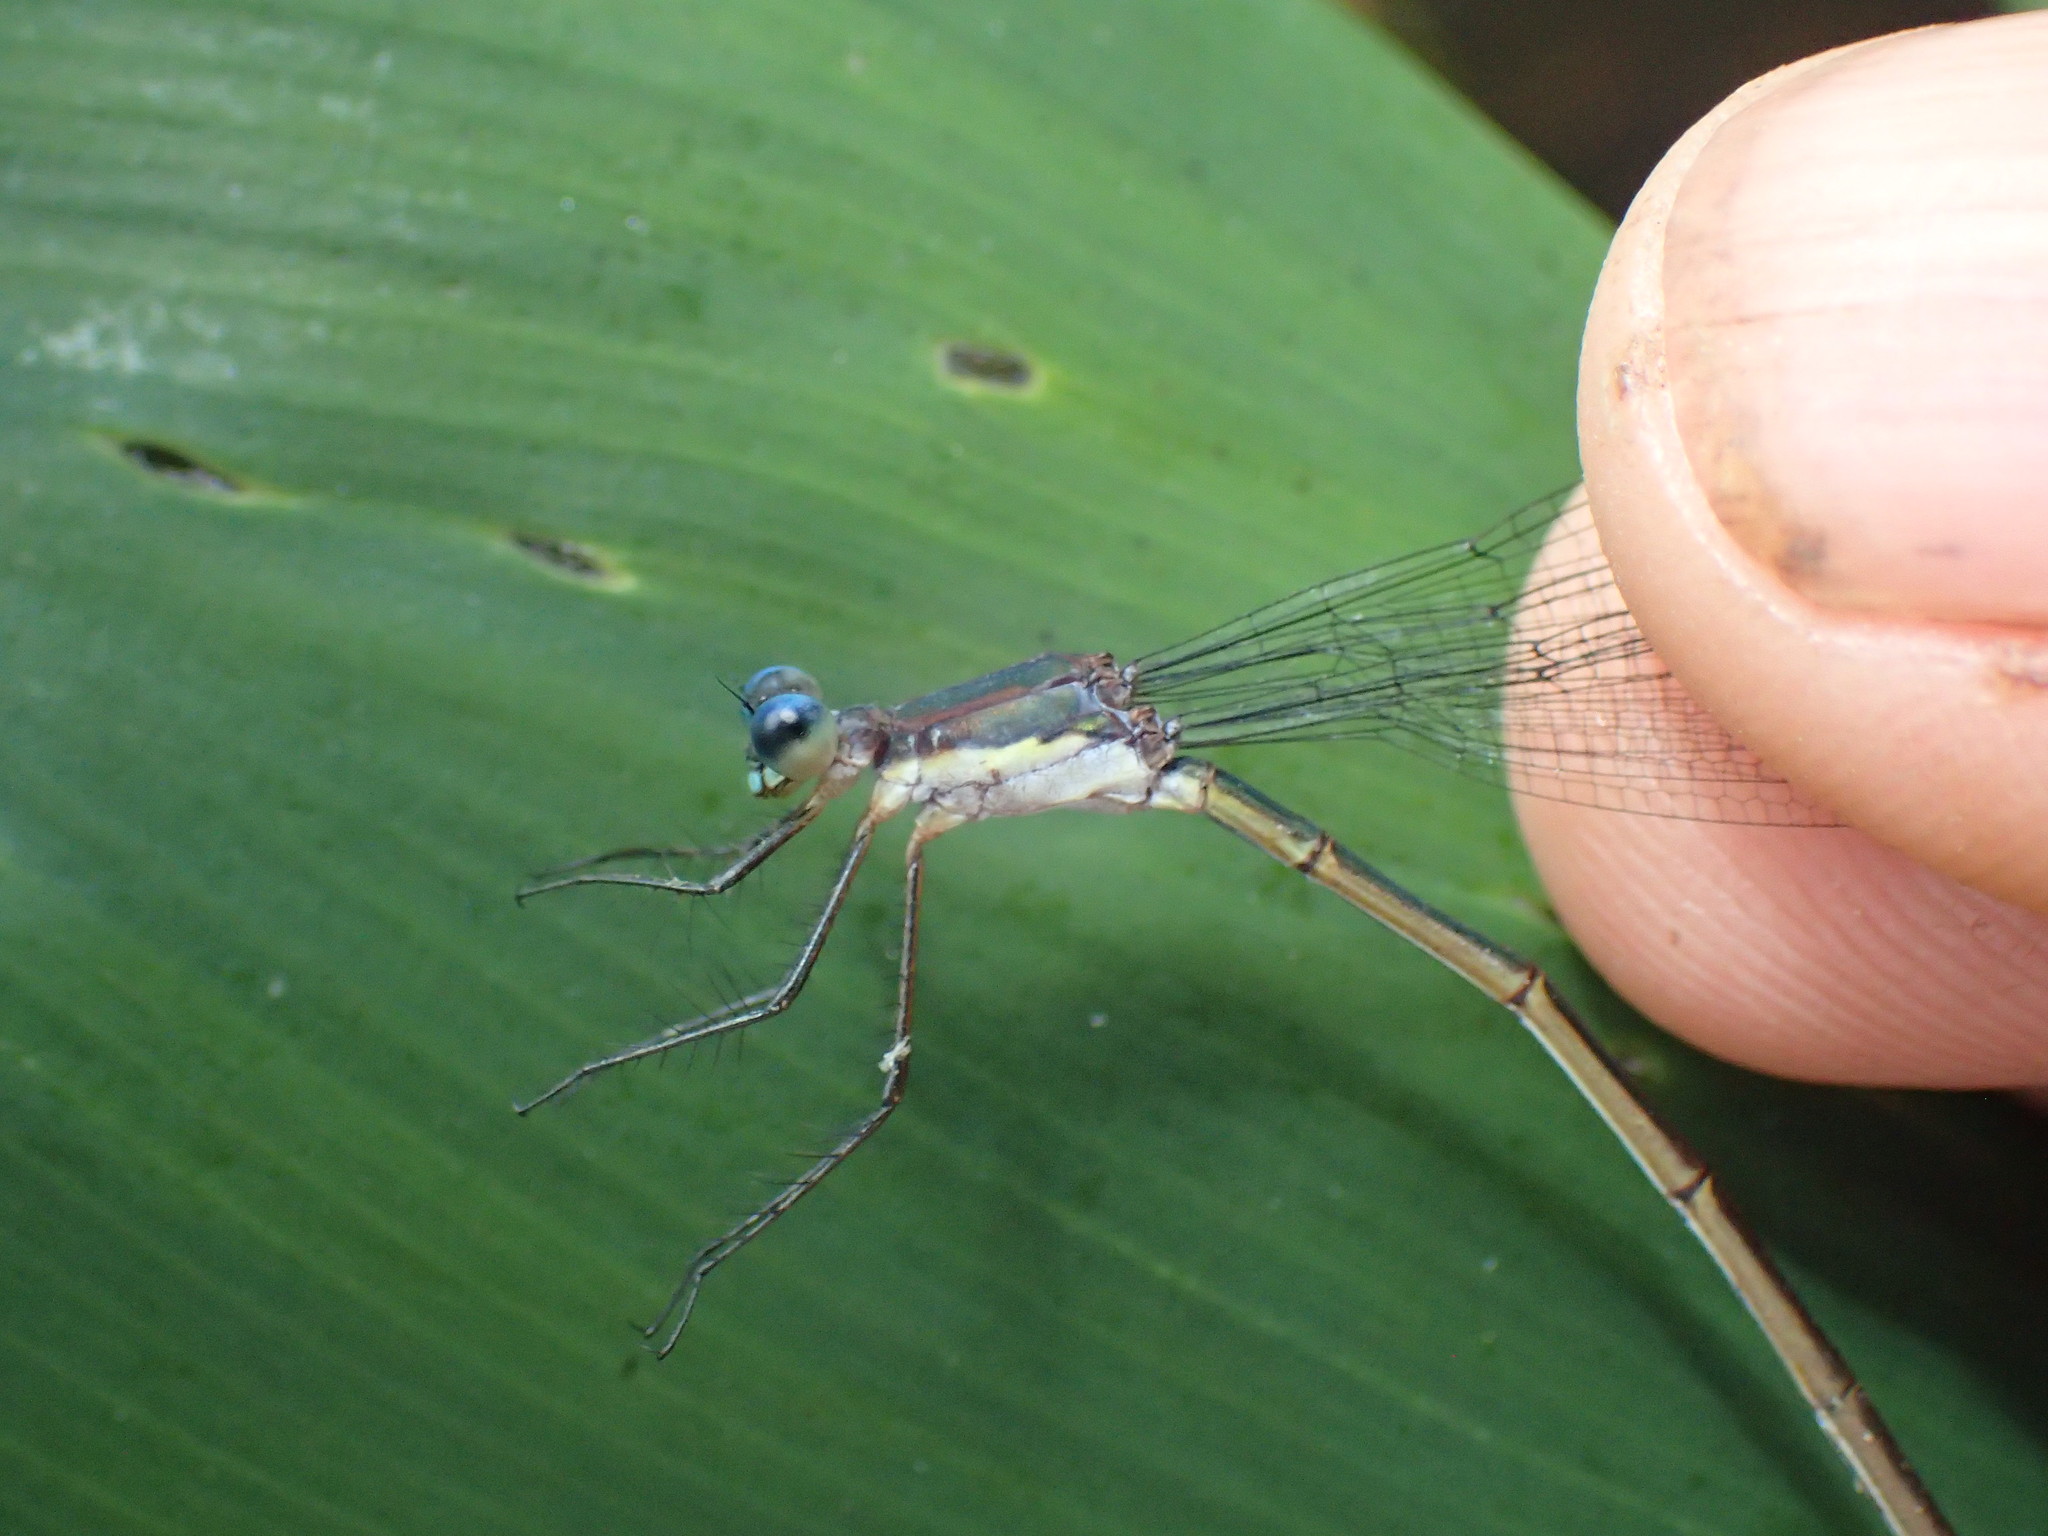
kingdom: Animalia
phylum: Arthropoda
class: Insecta
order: Odonata
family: Lestidae
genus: Lestes
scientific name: Lestes vigilax
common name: Swamp spreadwing
